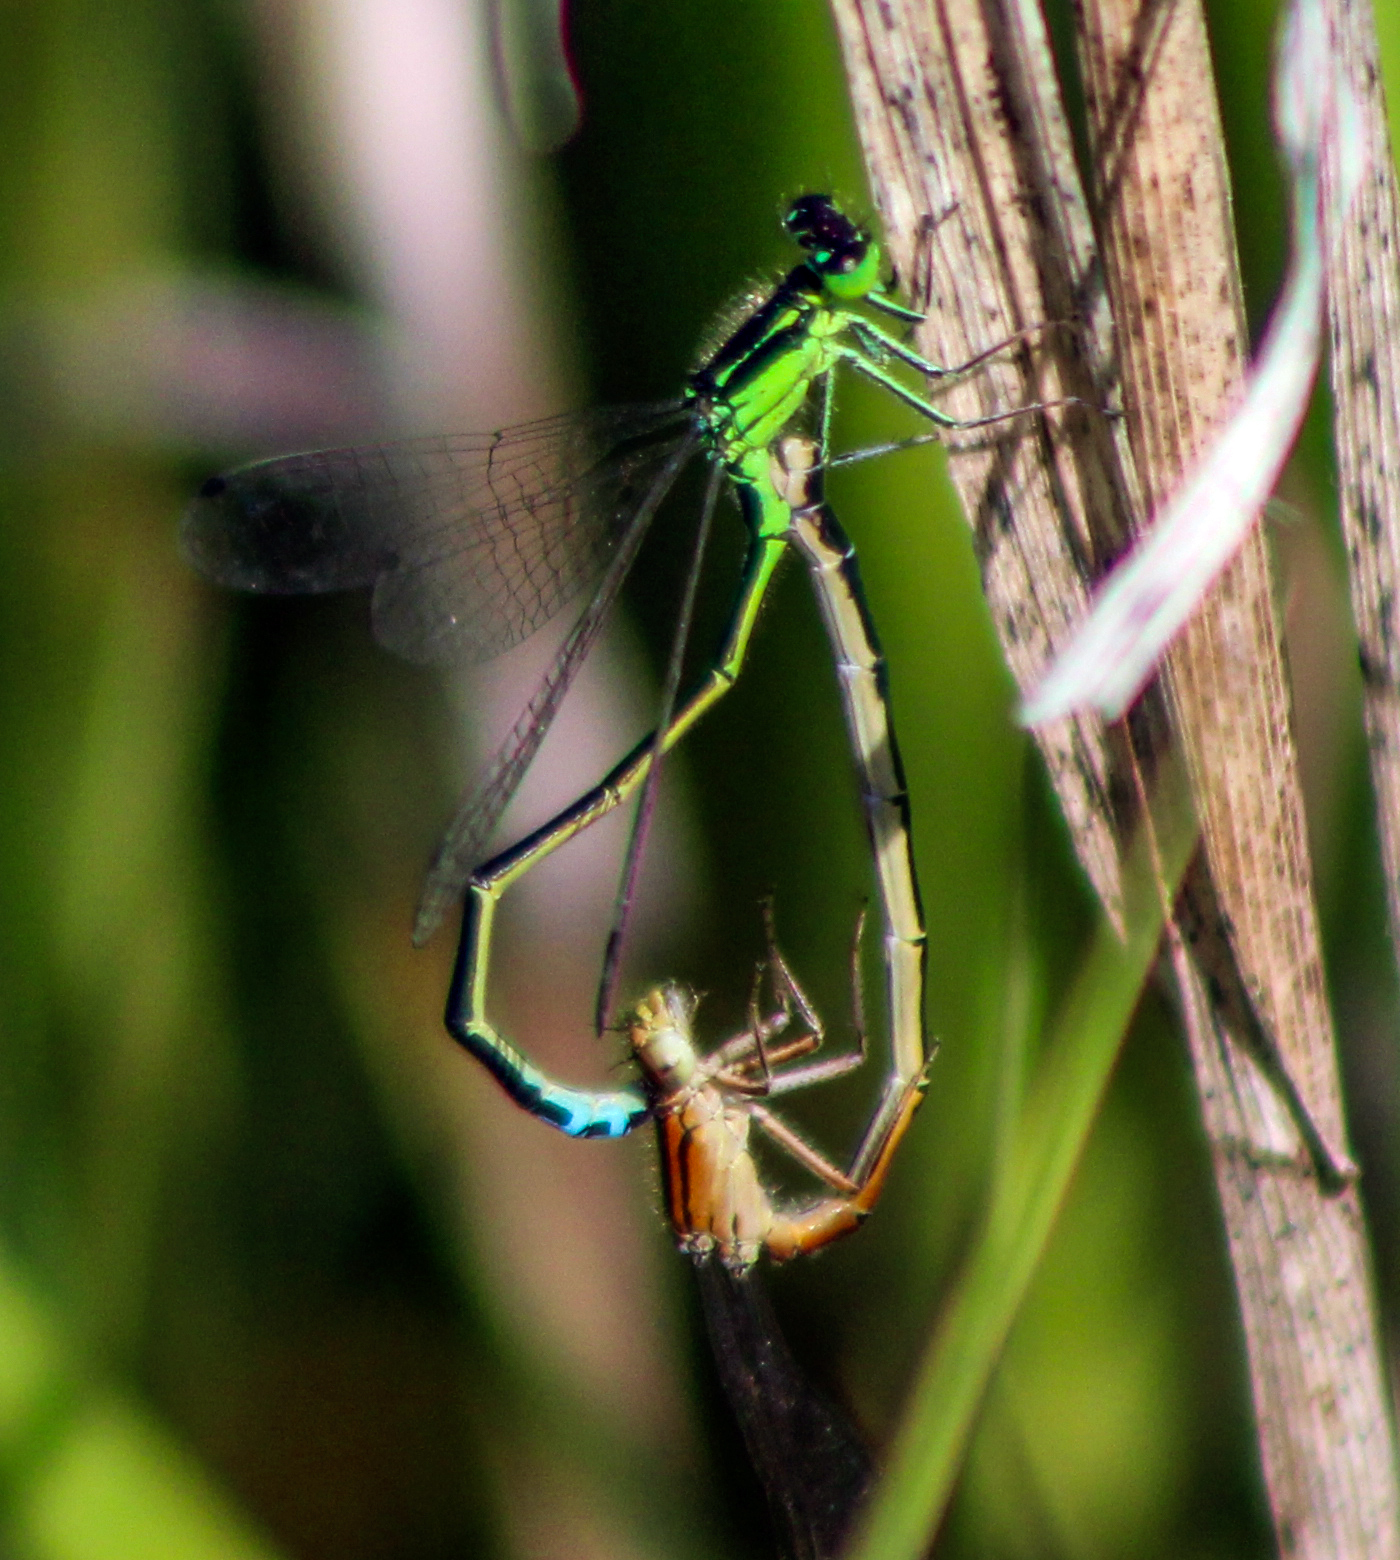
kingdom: Animalia
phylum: Arthropoda
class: Insecta
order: Odonata
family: Coenagrionidae
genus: Ischnura
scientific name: Ischnura verticalis
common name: Eastern forktail
